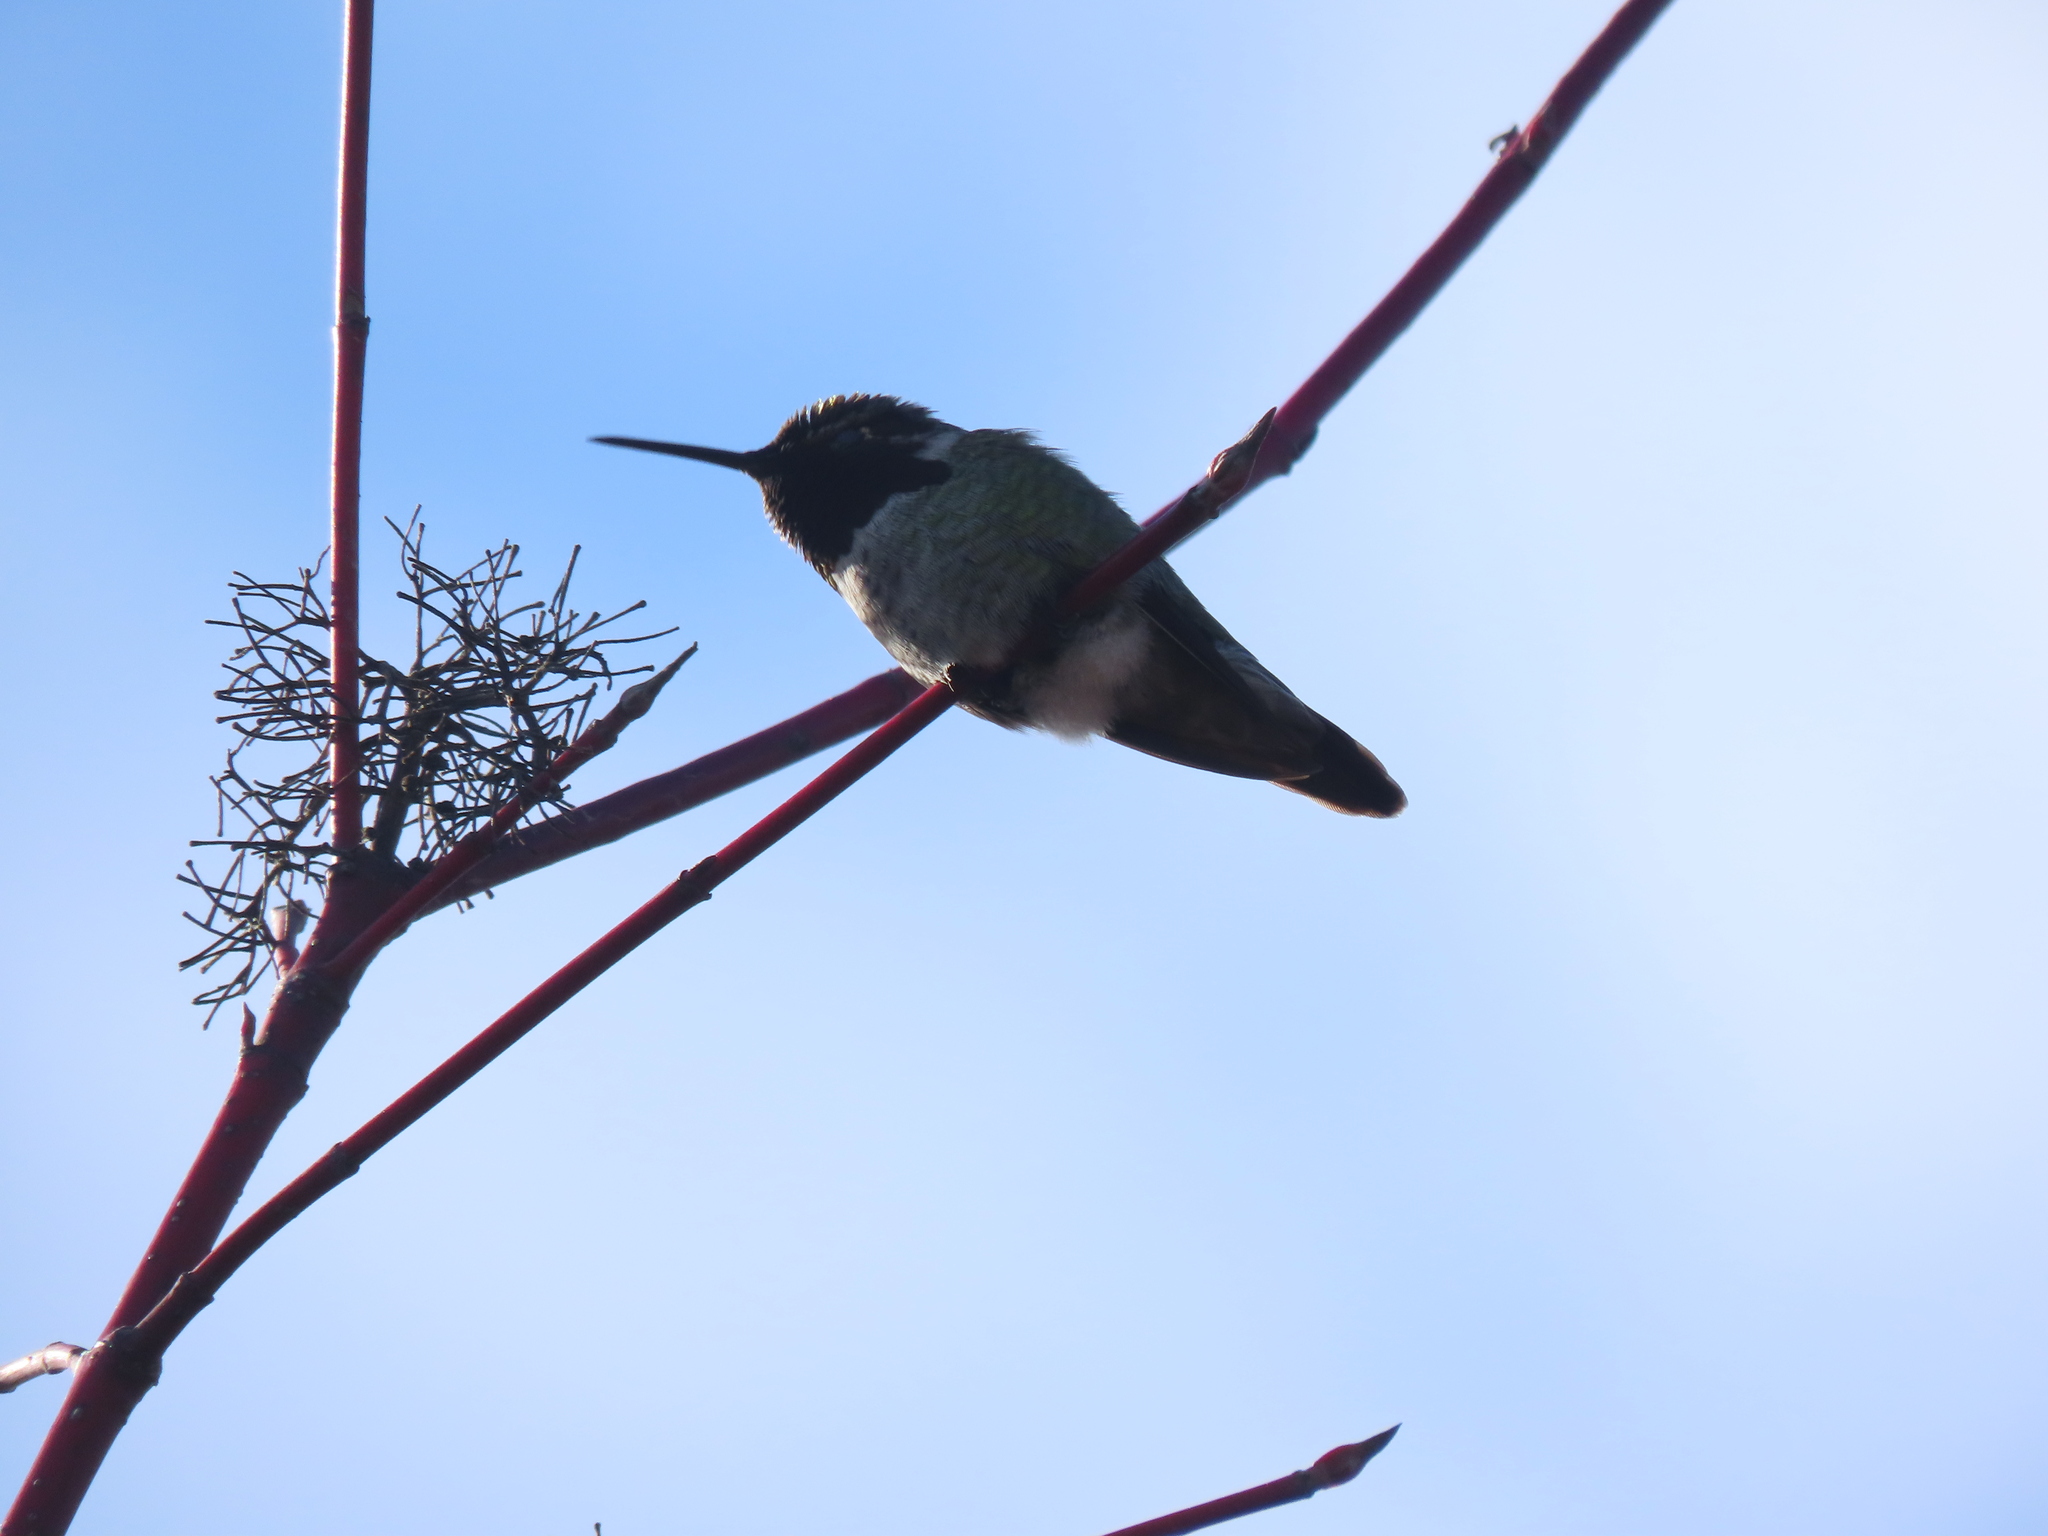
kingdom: Animalia
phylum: Chordata
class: Aves
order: Apodiformes
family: Trochilidae
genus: Calypte
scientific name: Calypte anna
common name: Anna's hummingbird
